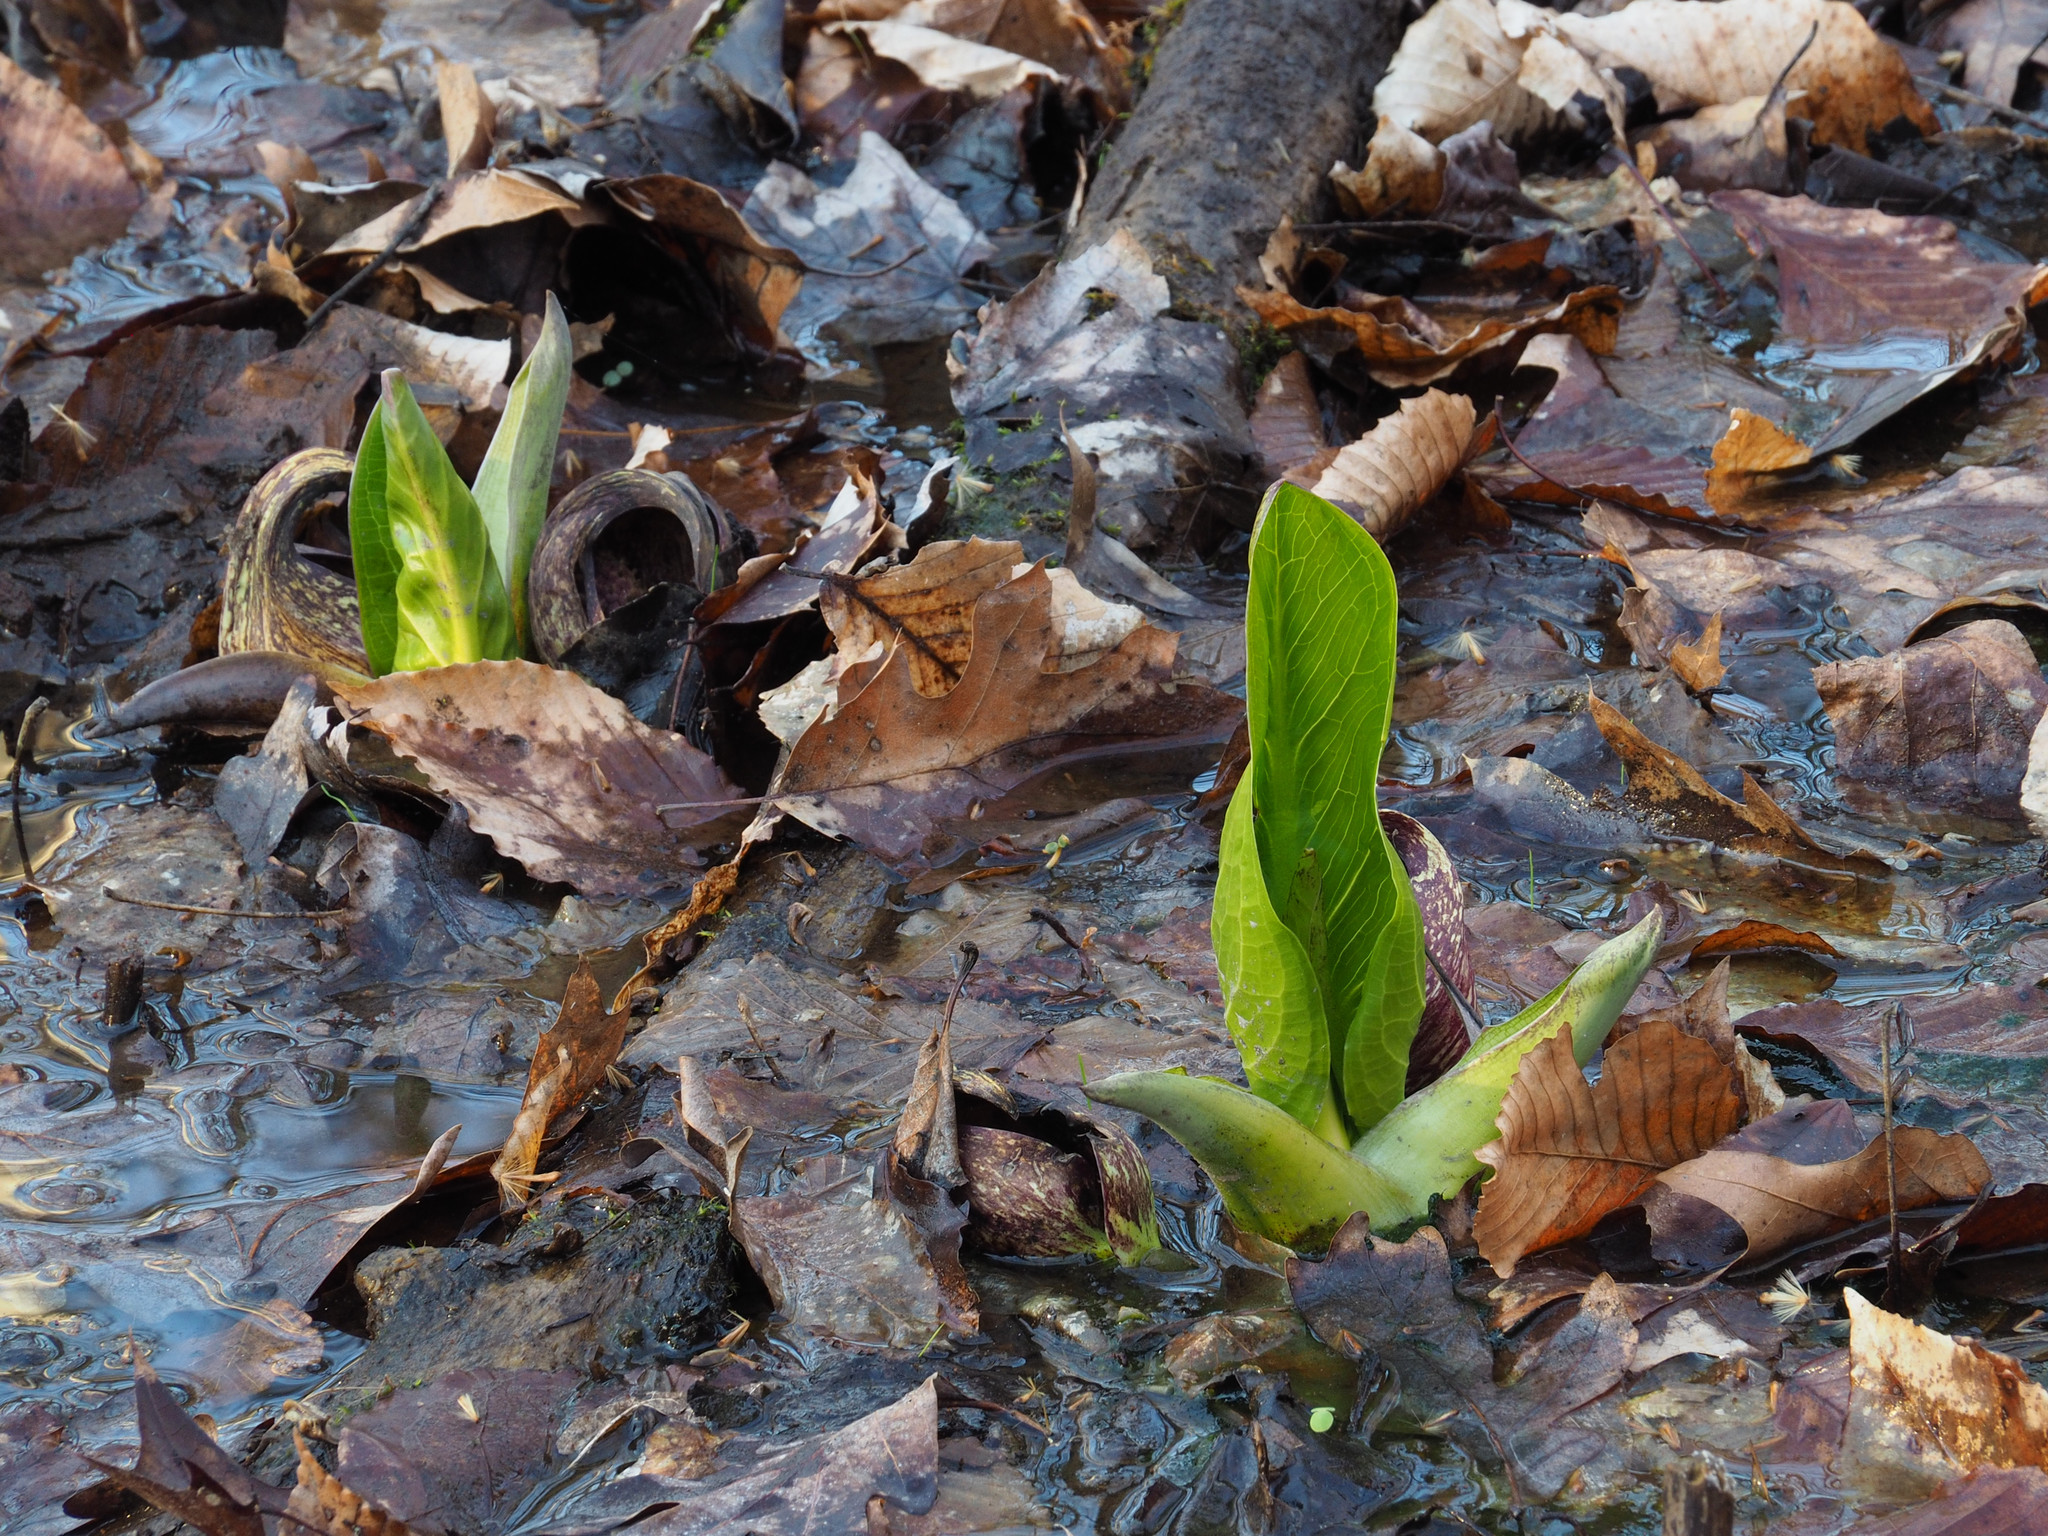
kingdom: Plantae
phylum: Tracheophyta
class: Liliopsida
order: Alismatales
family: Araceae
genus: Symplocarpus
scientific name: Symplocarpus foetidus
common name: Eastern skunk cabbage
